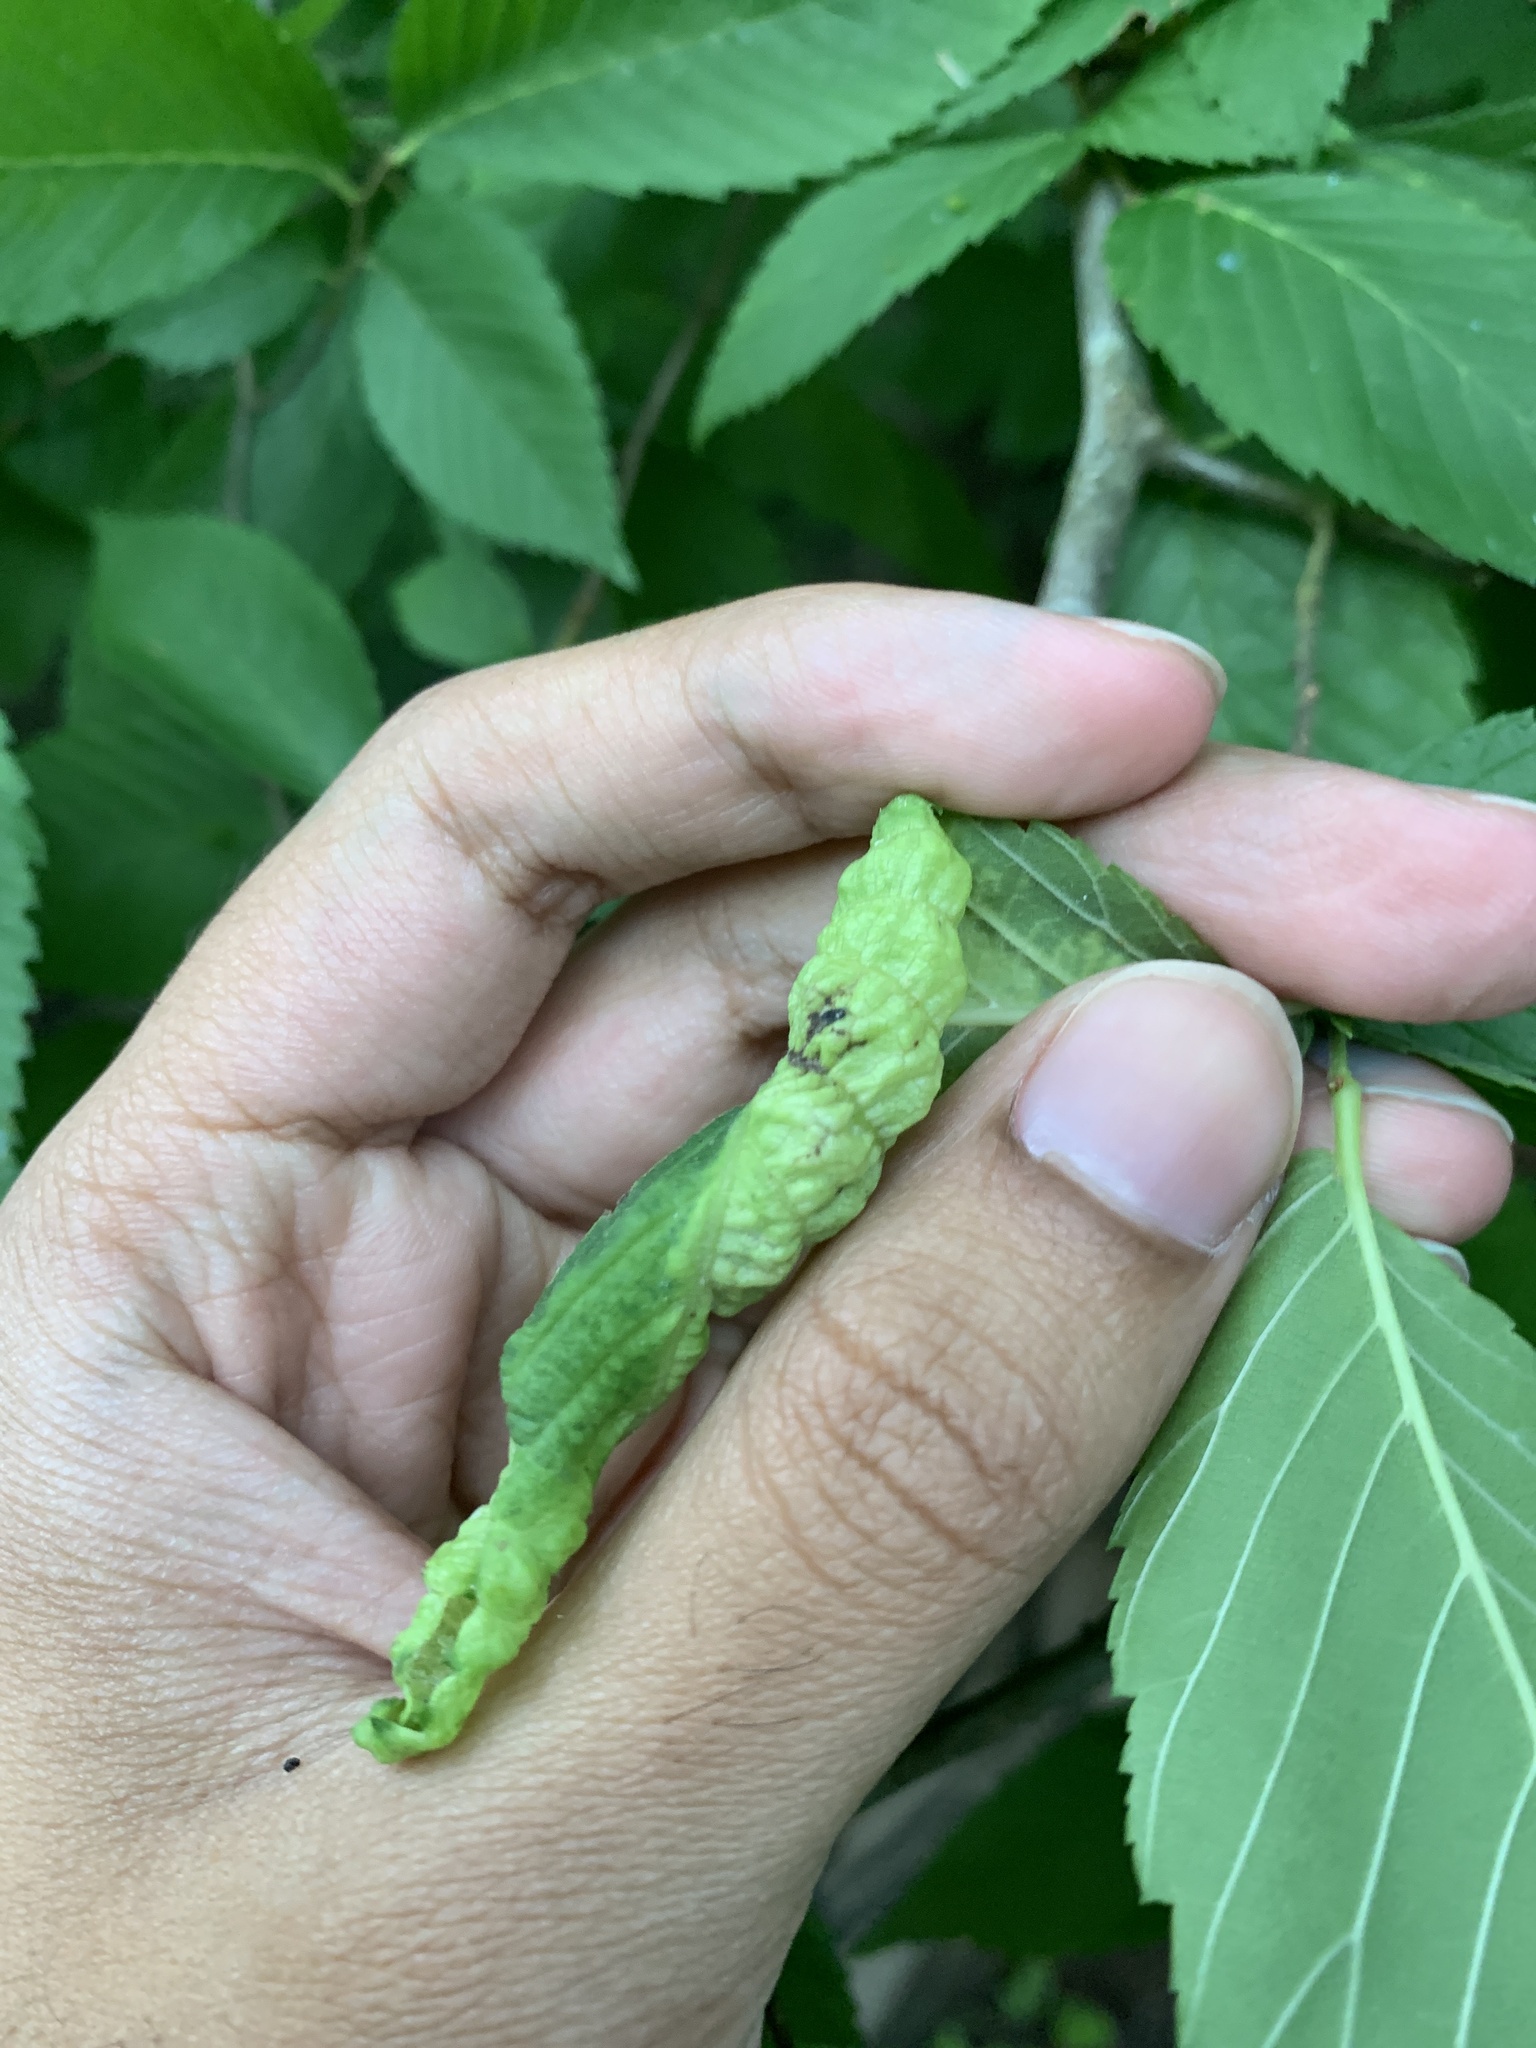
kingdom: Animalia
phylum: Arthropoda
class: Insecta
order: Hemiptera
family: Aphididae
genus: Eriosoma
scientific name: Eriosoma americanum
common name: Woolly elm aphid
